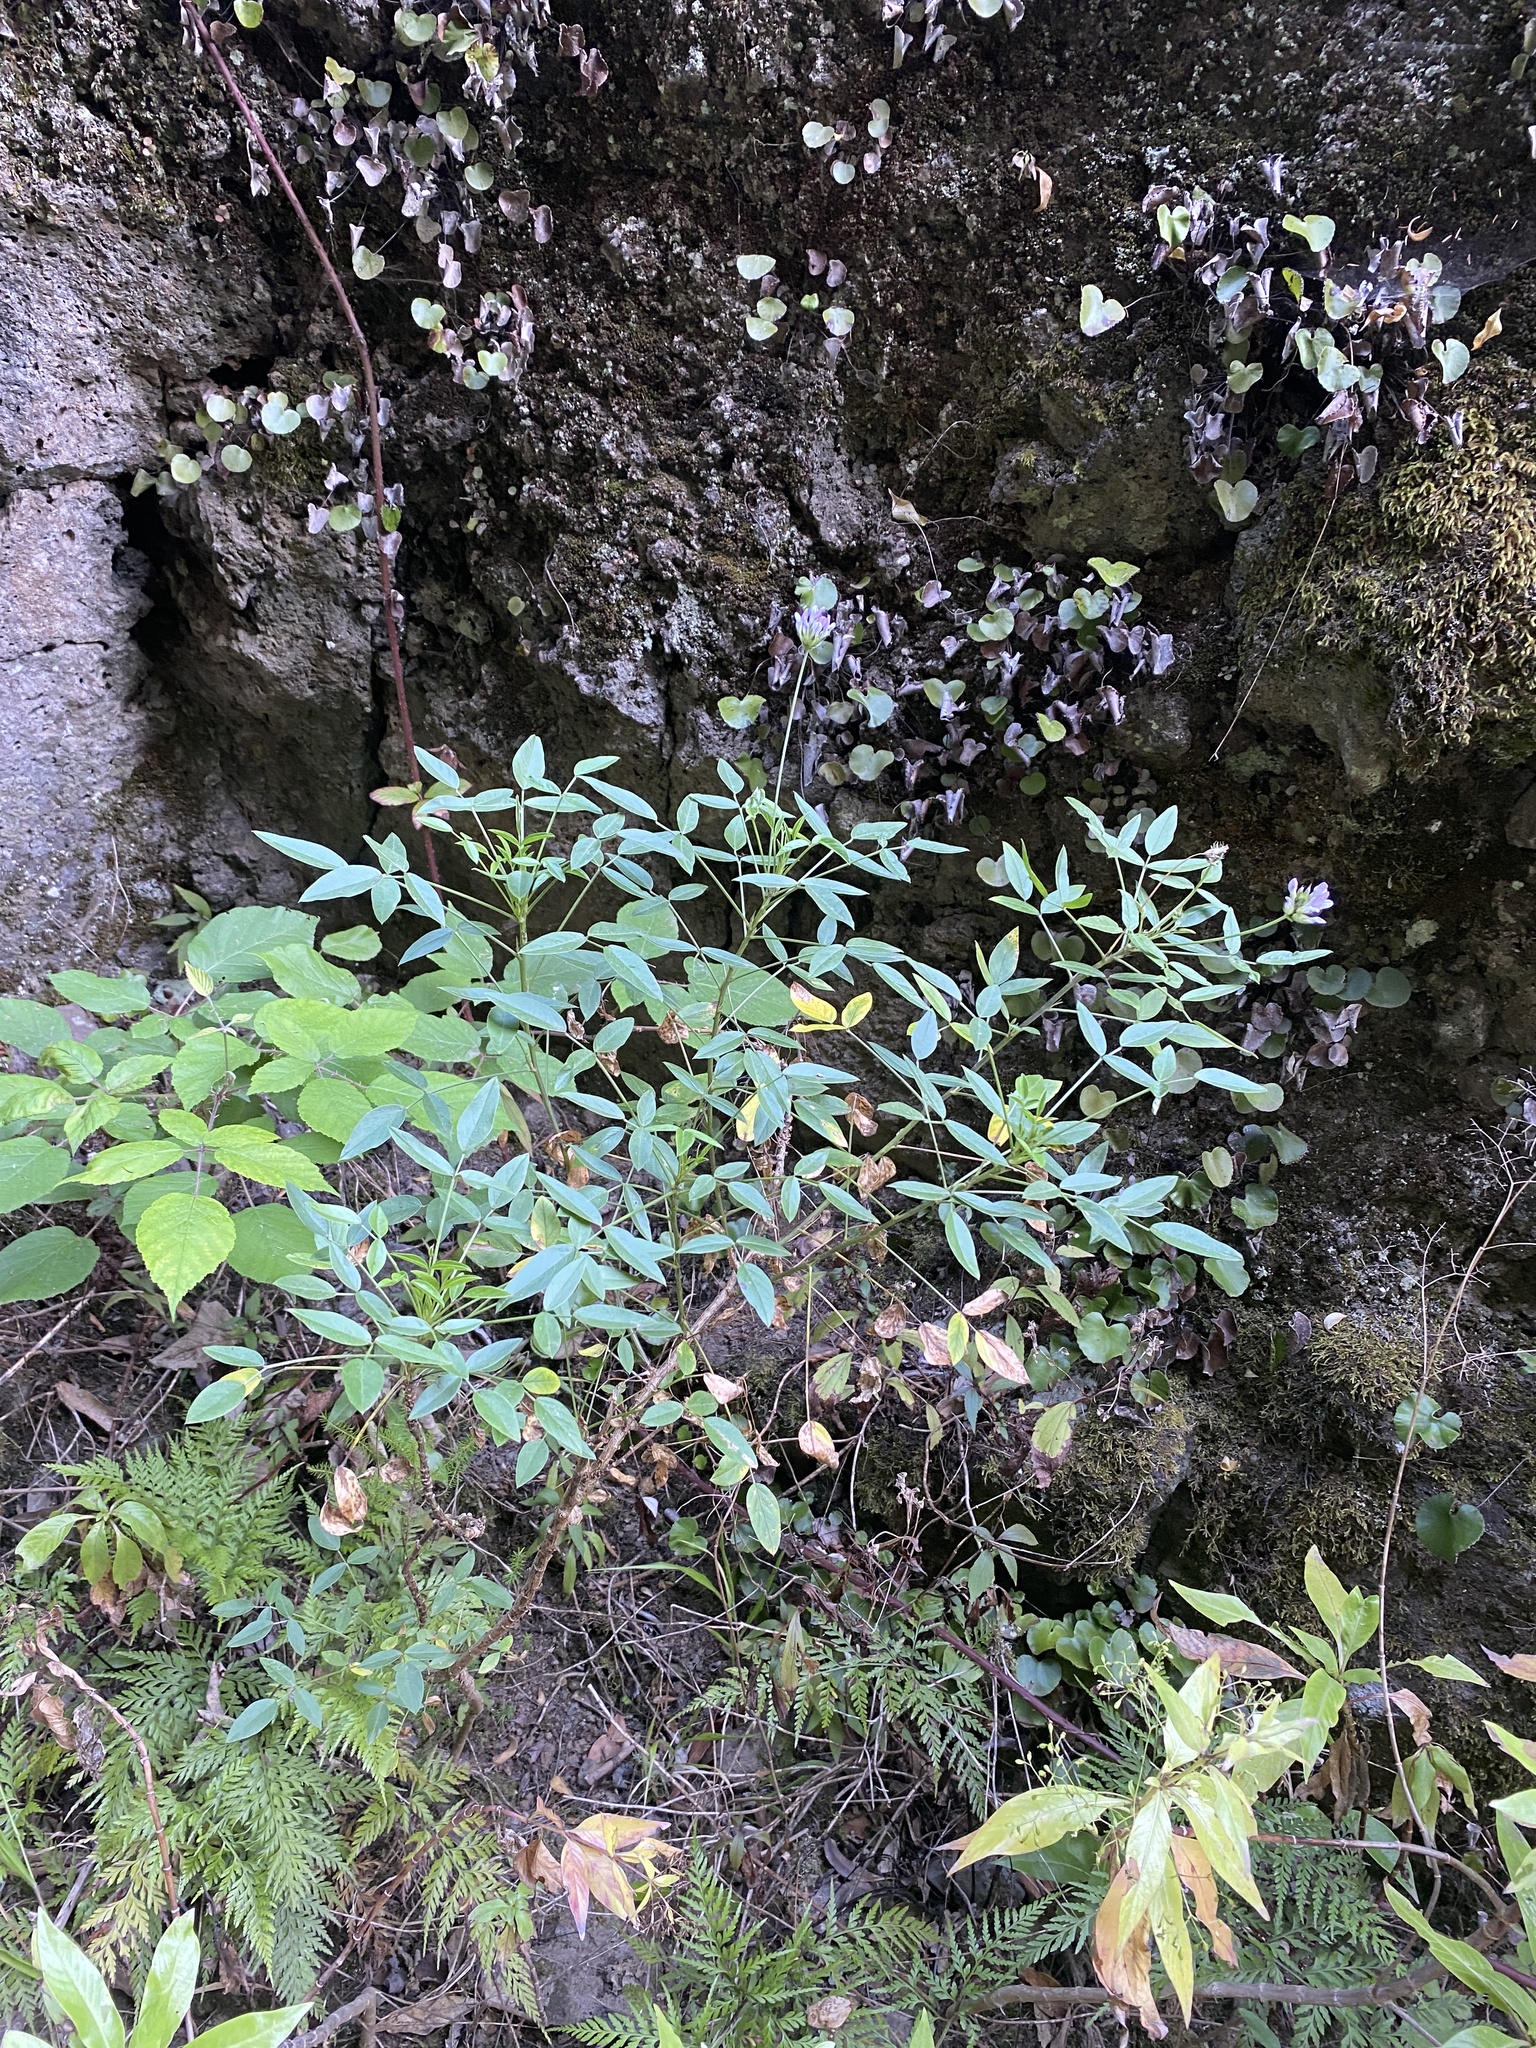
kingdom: Plantae
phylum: Tracheophyta
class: Magnoliopsida
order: Fabales
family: Fabaceae
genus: Bituminaria
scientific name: Bituminaria bituminosa
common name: Arabian pea
